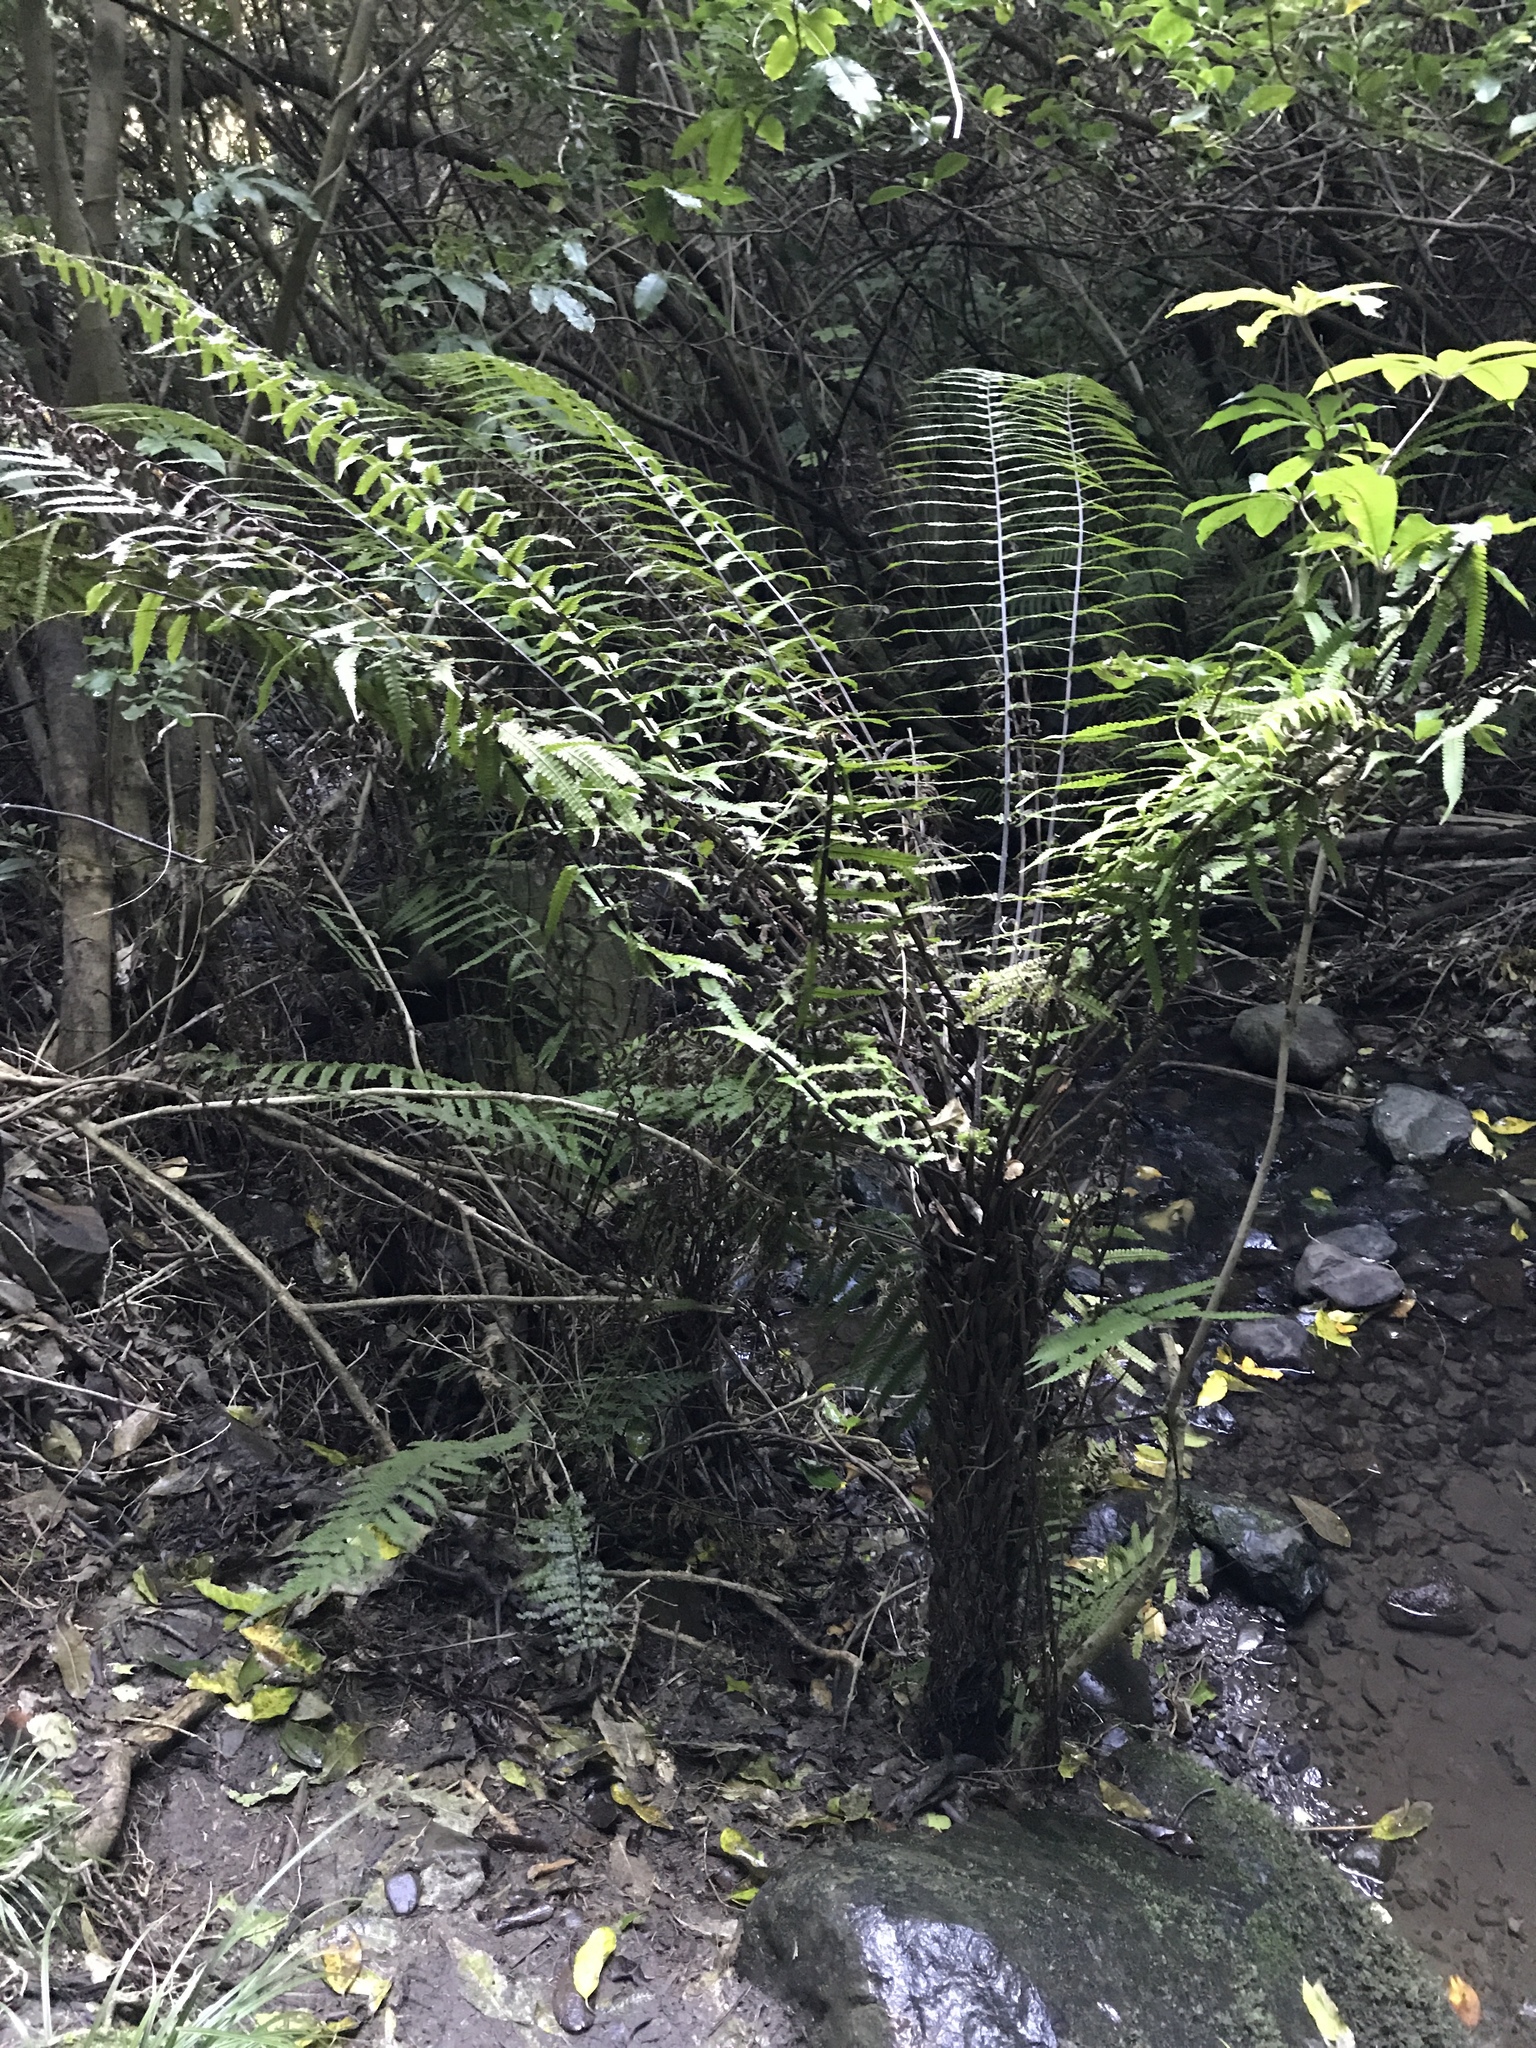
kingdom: Plantae
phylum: Tracheophyta
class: Polypodiopsida
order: Polypodiales
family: Thelypteridaceae
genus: Pakau
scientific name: Pakau pennigera
